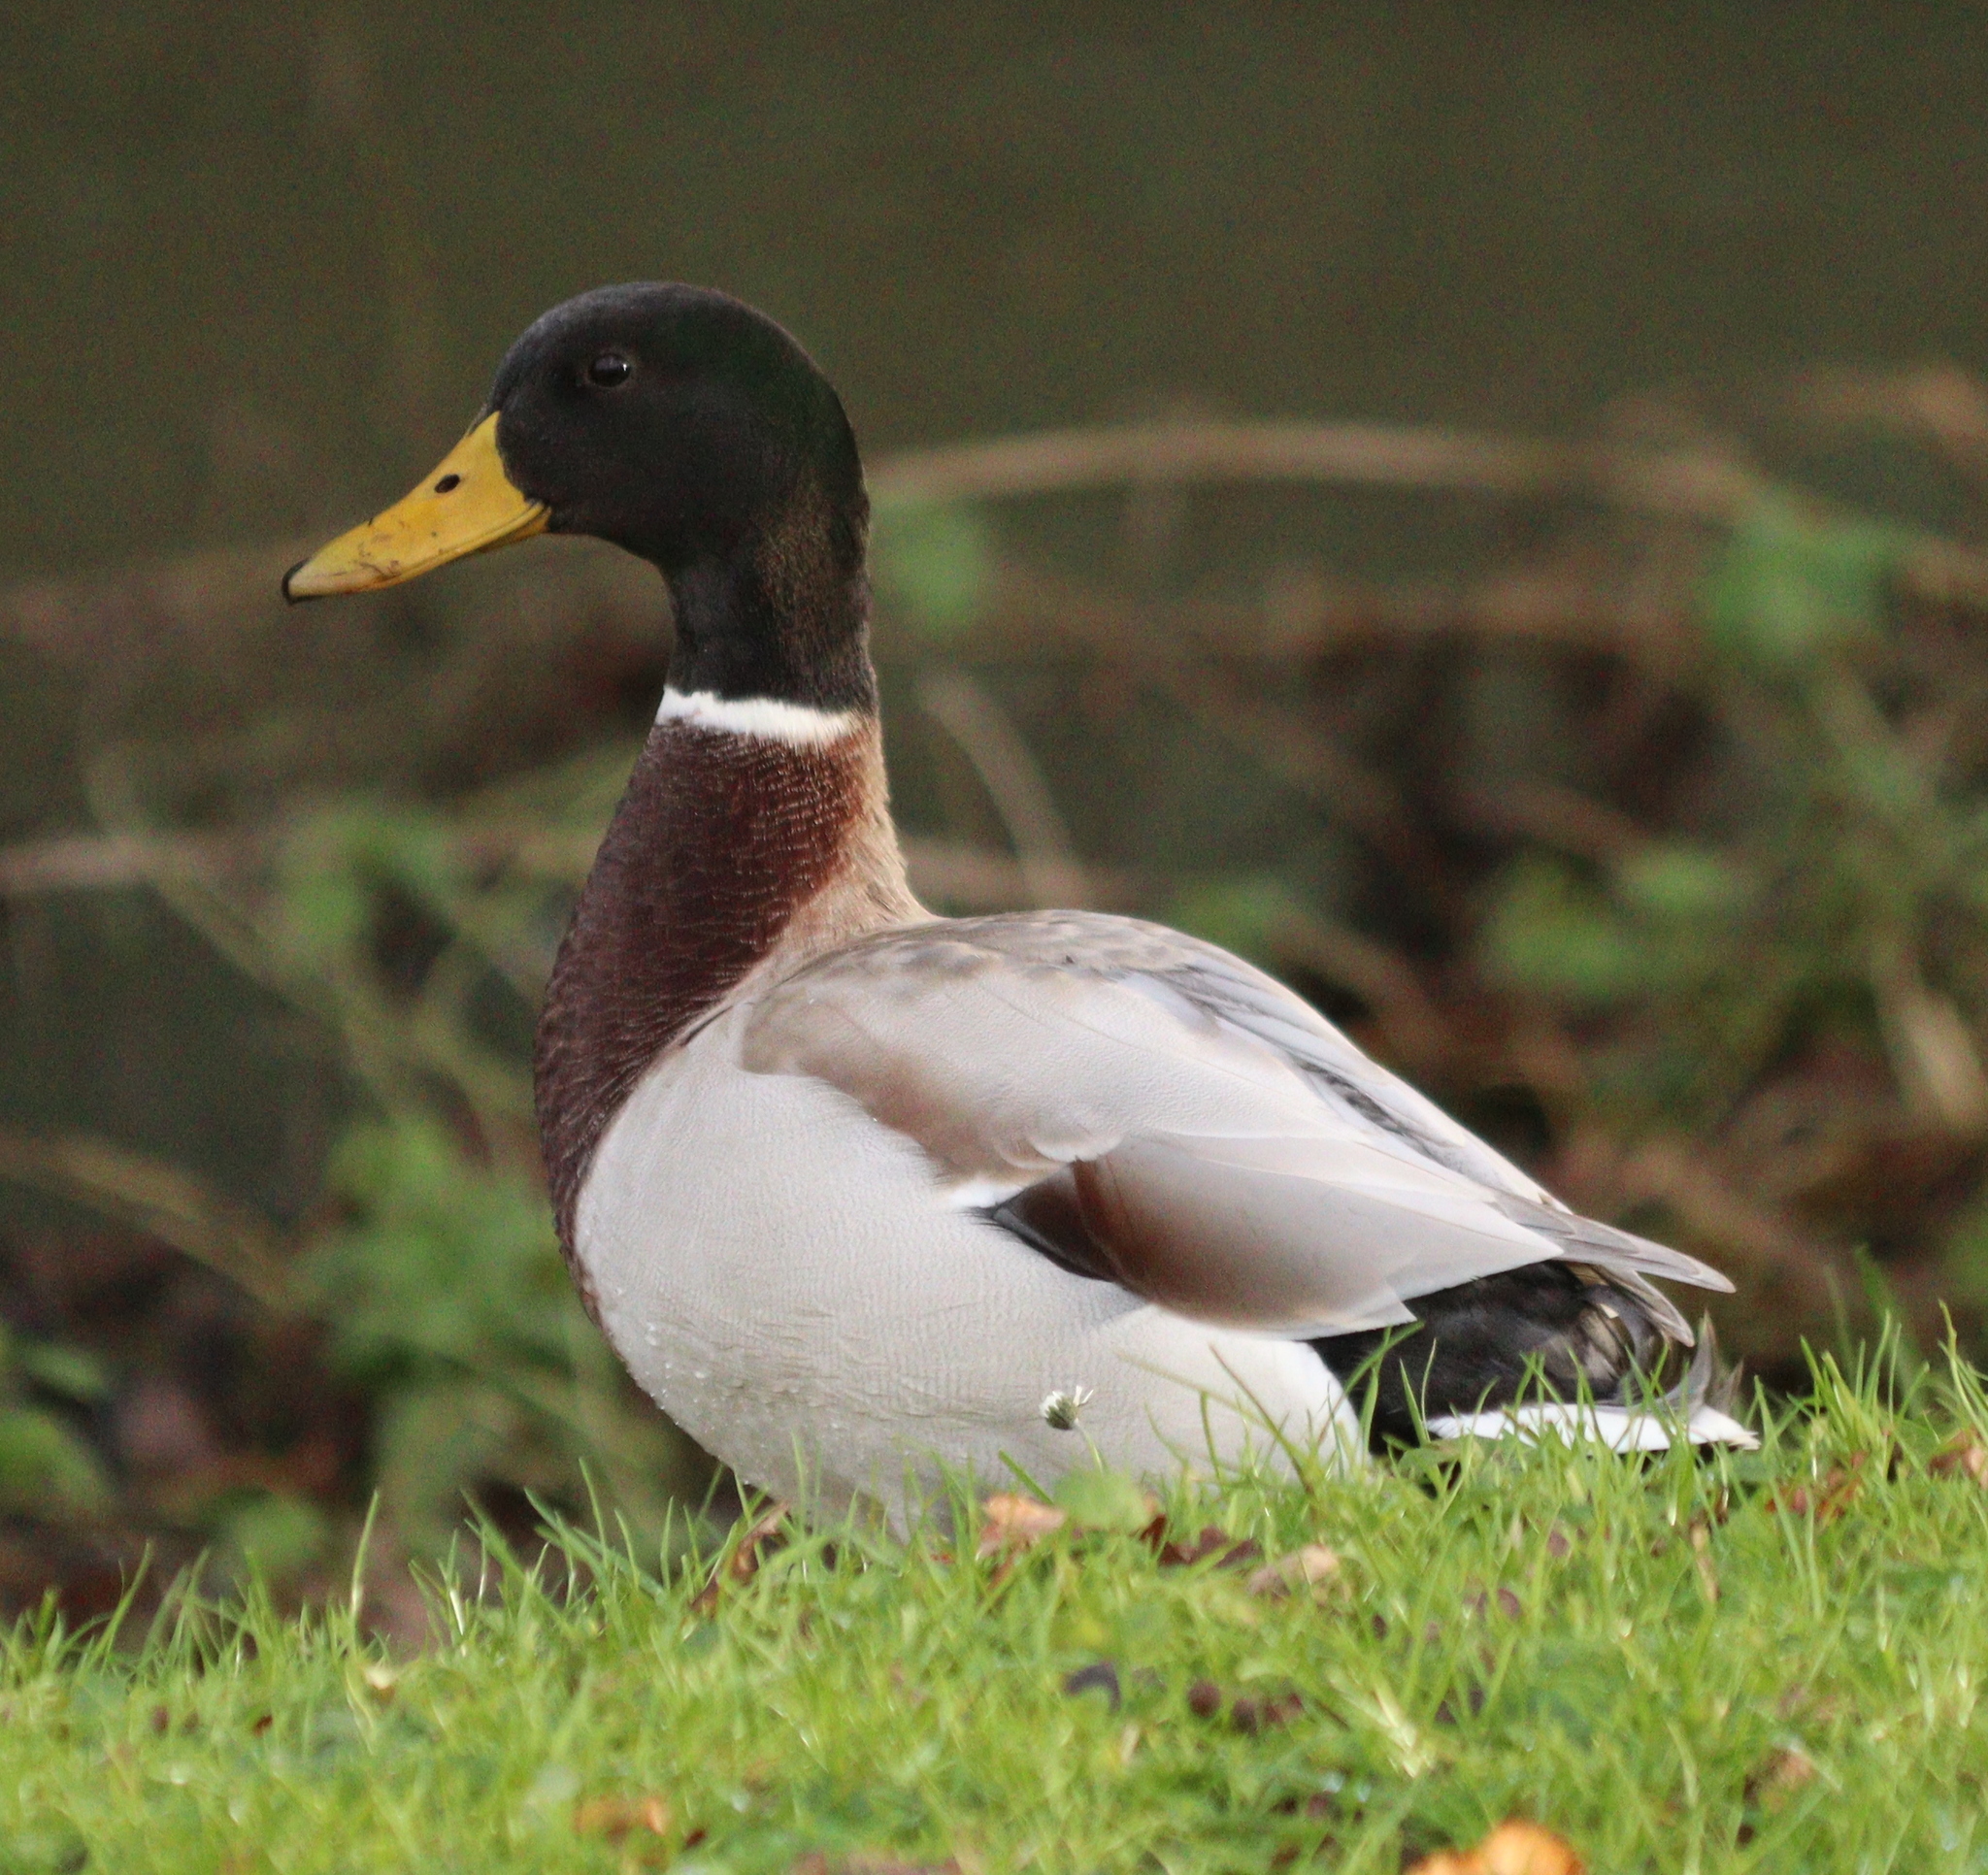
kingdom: Animalia
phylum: Chordata
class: Aves
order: Anseriformes
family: Anatidae
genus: Anas
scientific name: Anas platyrhynchos
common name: Mallard
